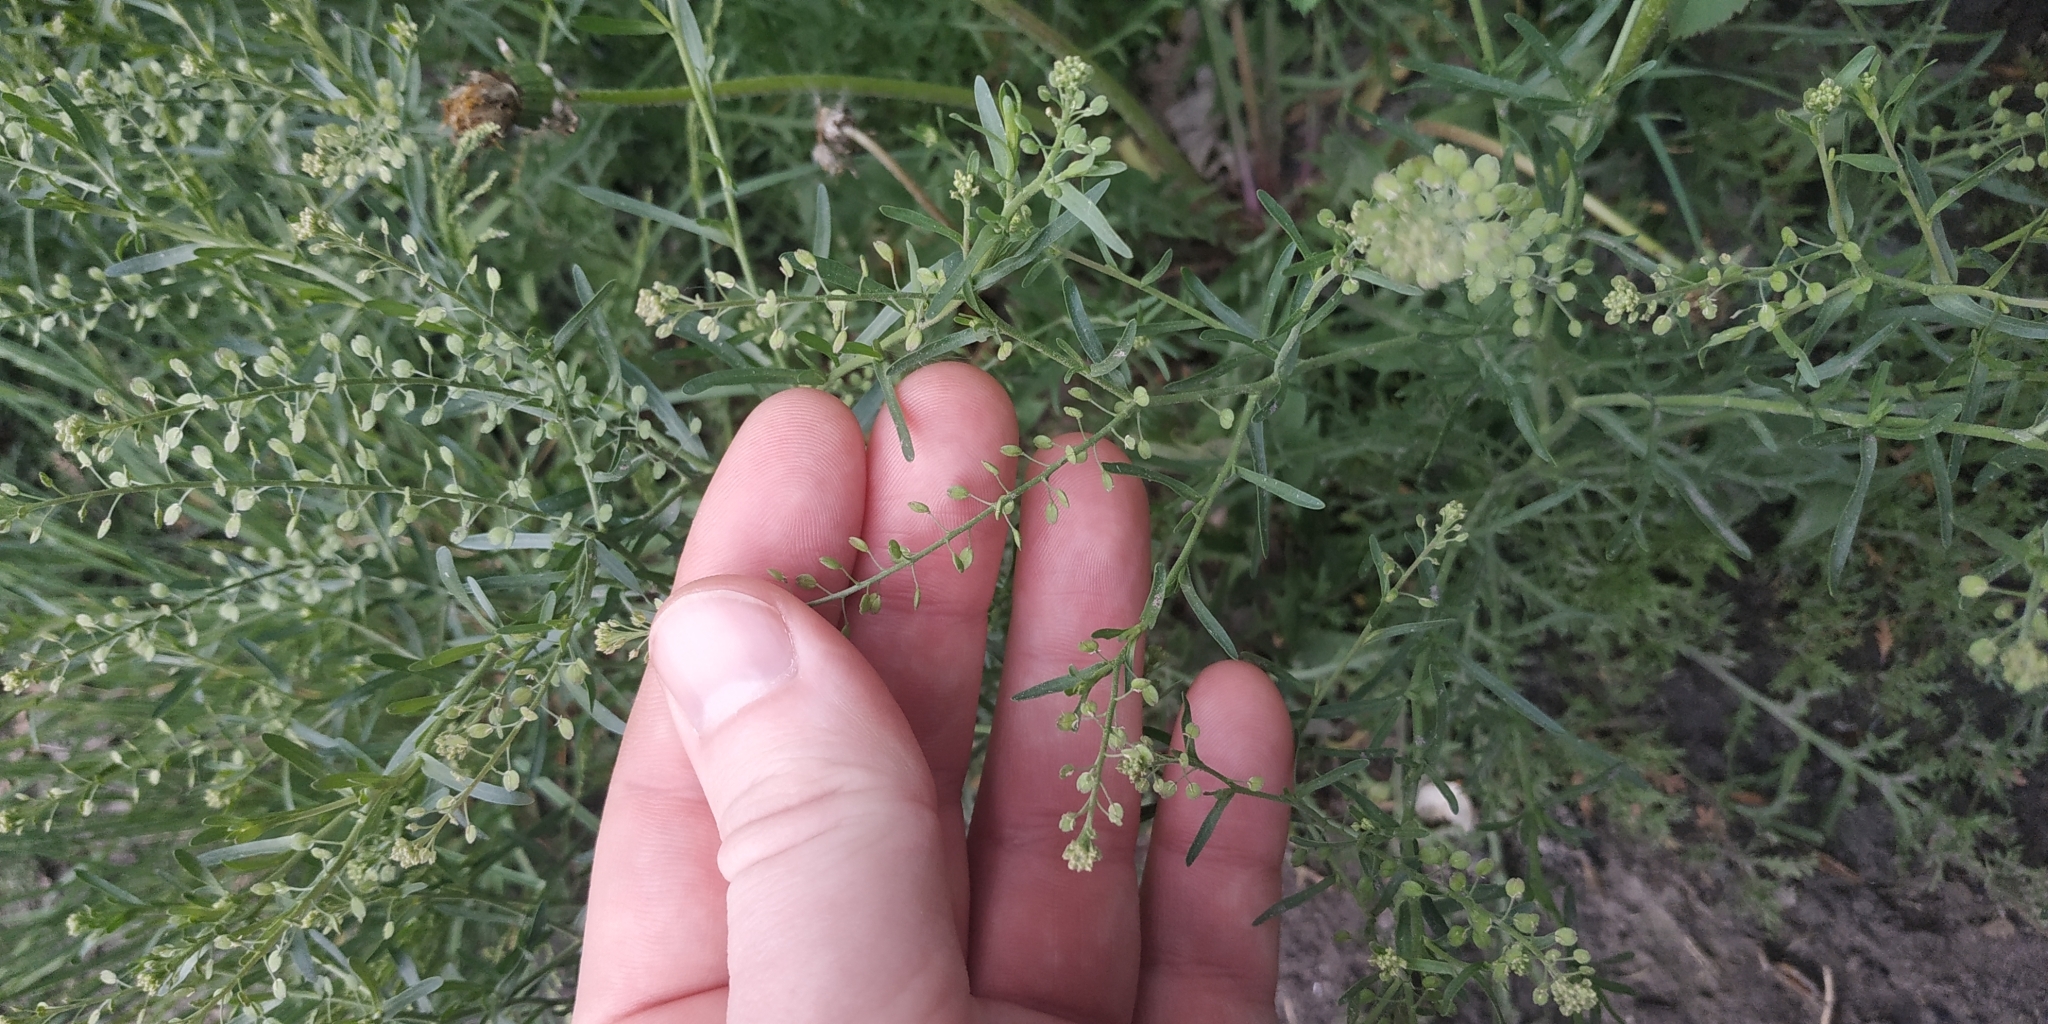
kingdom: Plantae
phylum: Tracheophyta
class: Magnoliopsida
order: Brassicales
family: Brassicaceae
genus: Lepidium
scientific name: Lepidium ruderale
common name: Narrow-leaved pepperwort
